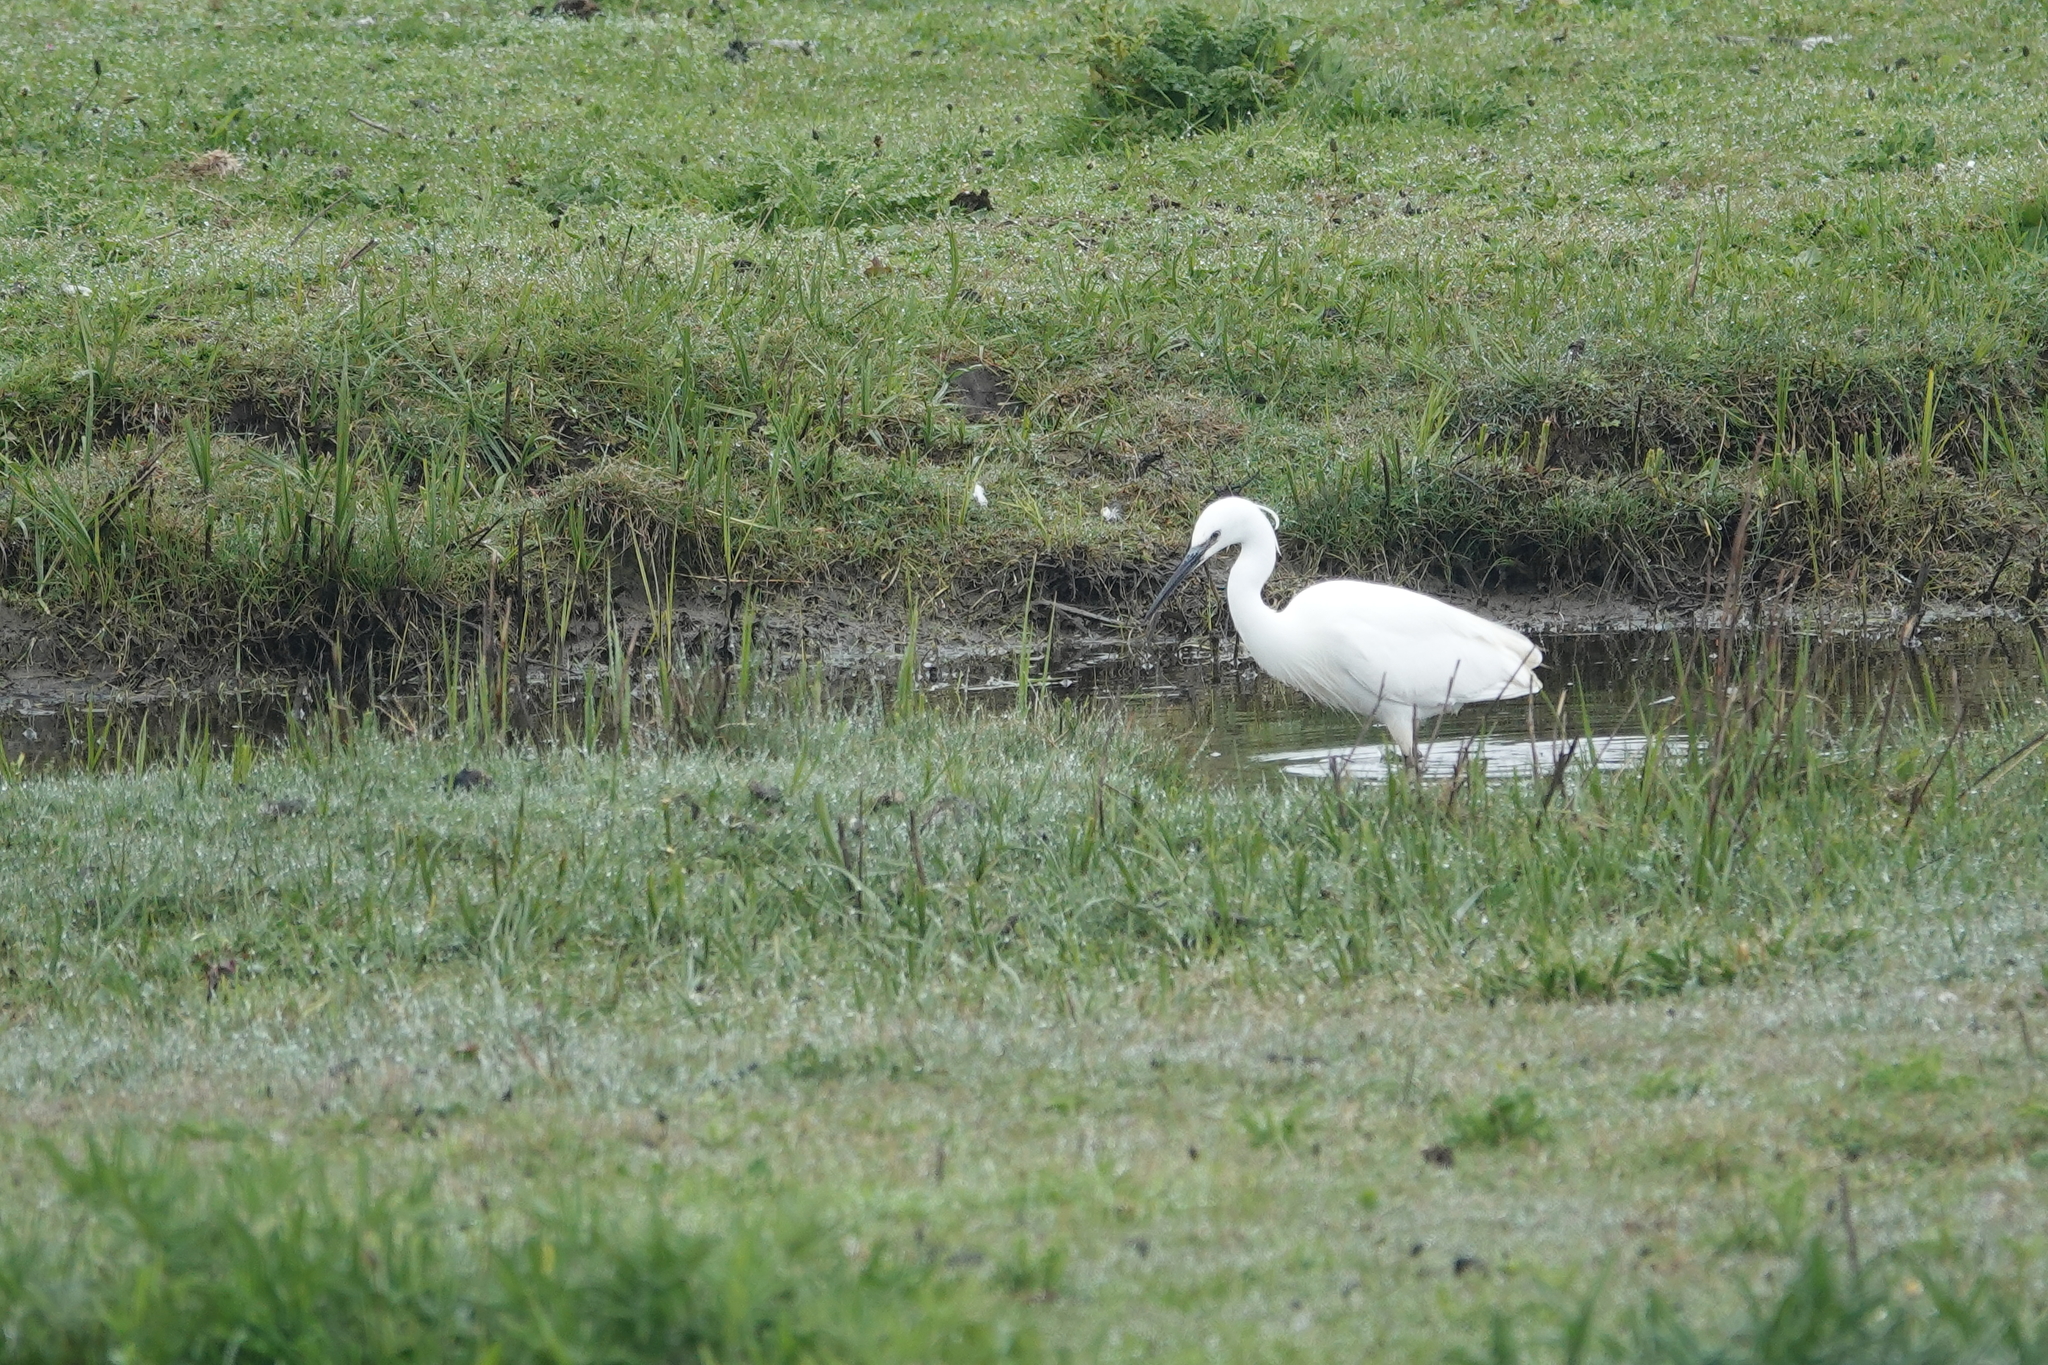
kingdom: Animalia
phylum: Chordata
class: Aves
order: Pelecaniformes
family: Ardeidae
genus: Egretta
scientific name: Egretta garzetta
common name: Little egret
